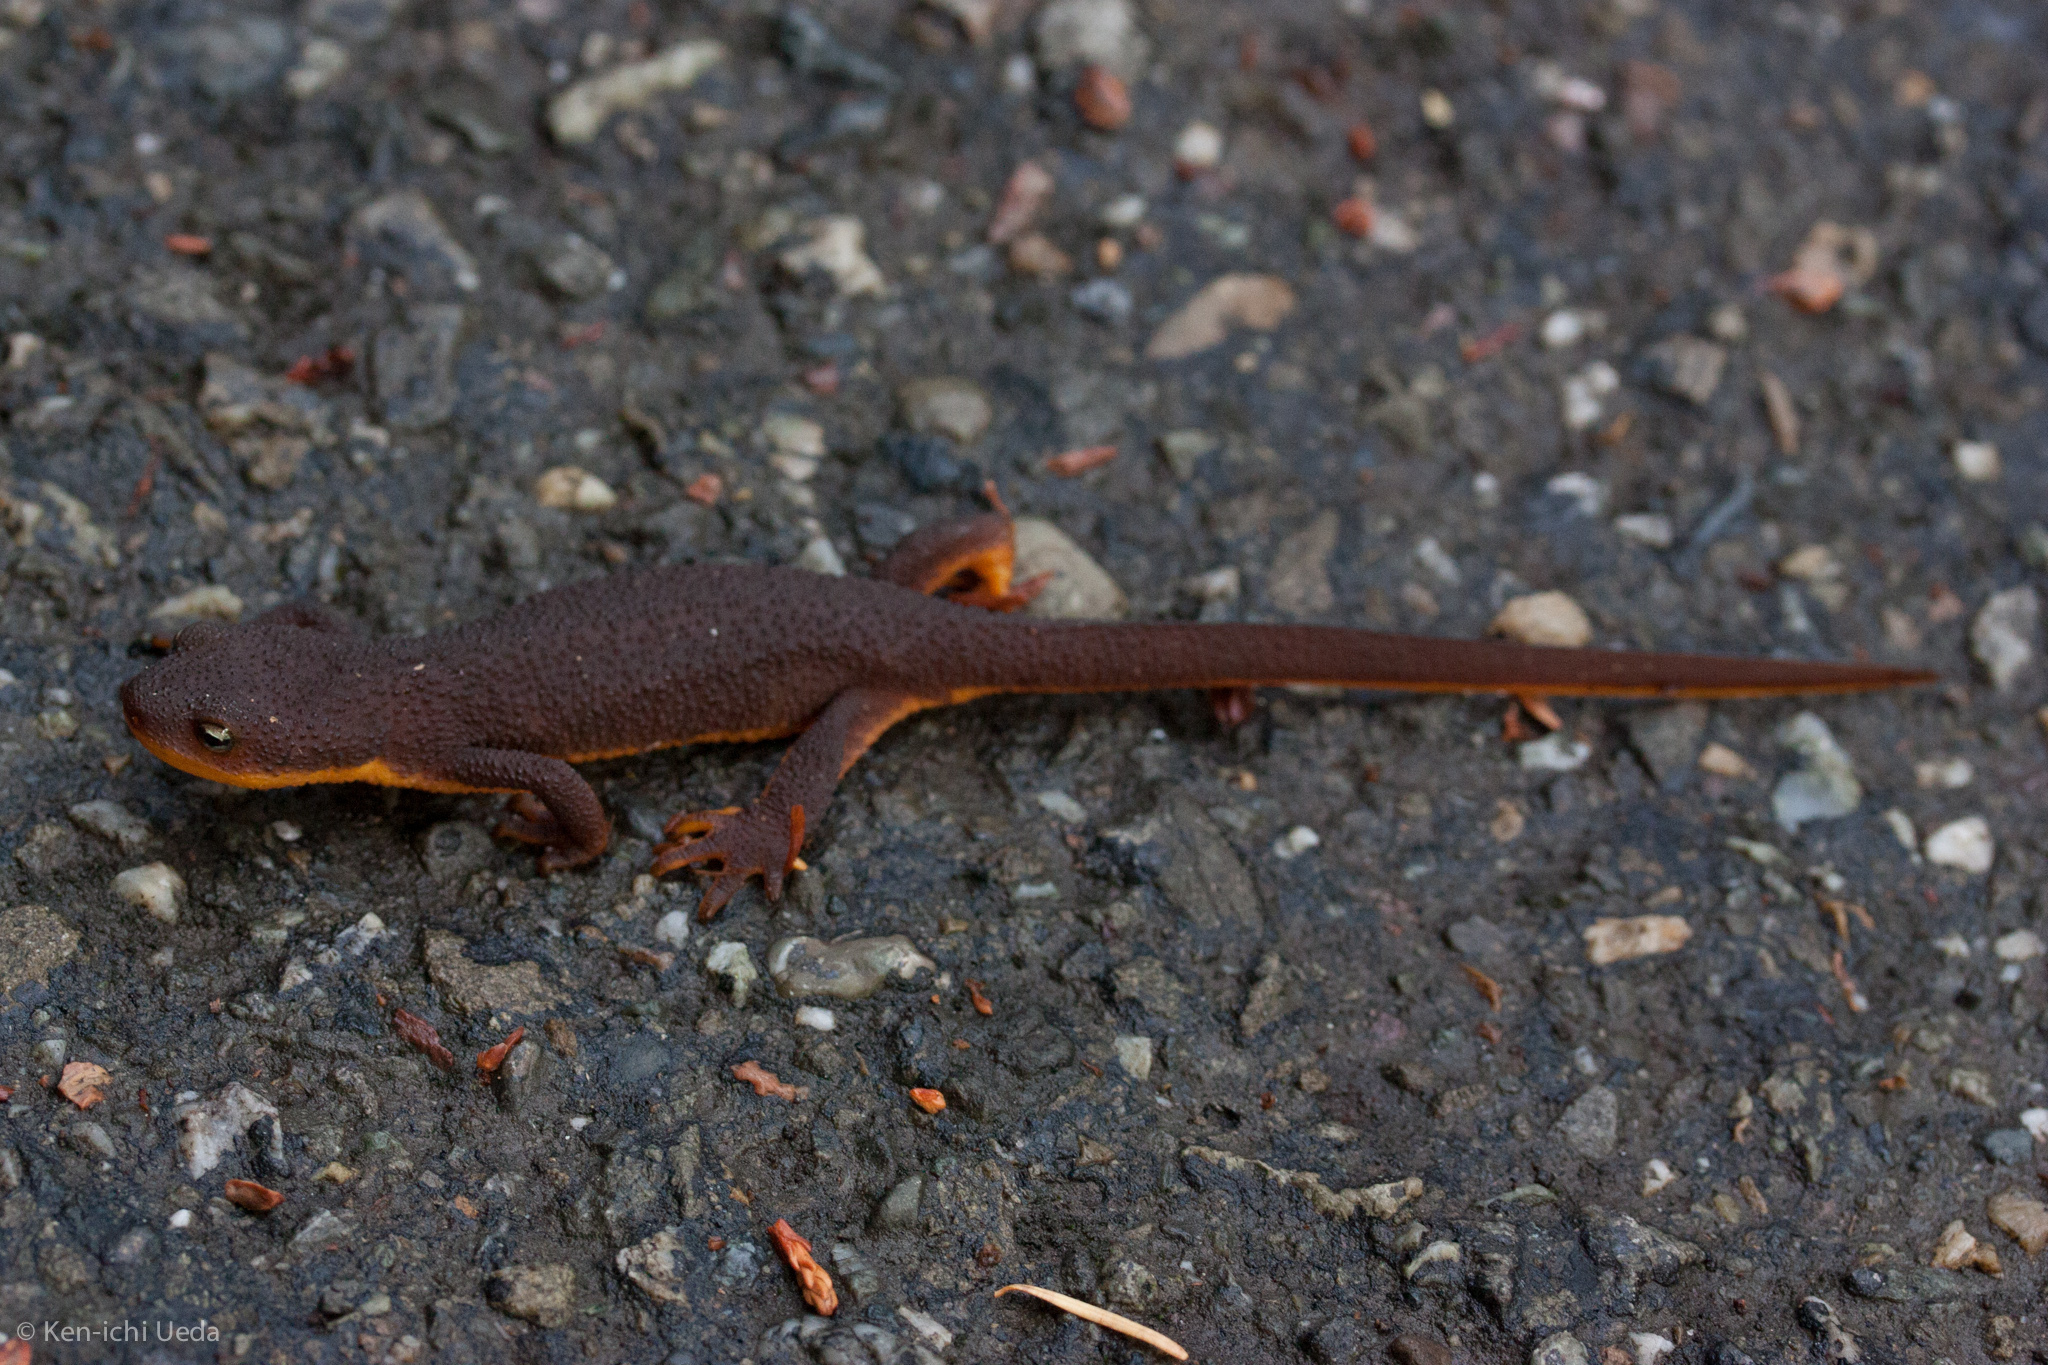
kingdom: Animalia
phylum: Chordata
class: Amphibia
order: Caudata
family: Salamandridae
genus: Taricha
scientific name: Taricha granulosa
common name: Roughskin newt
